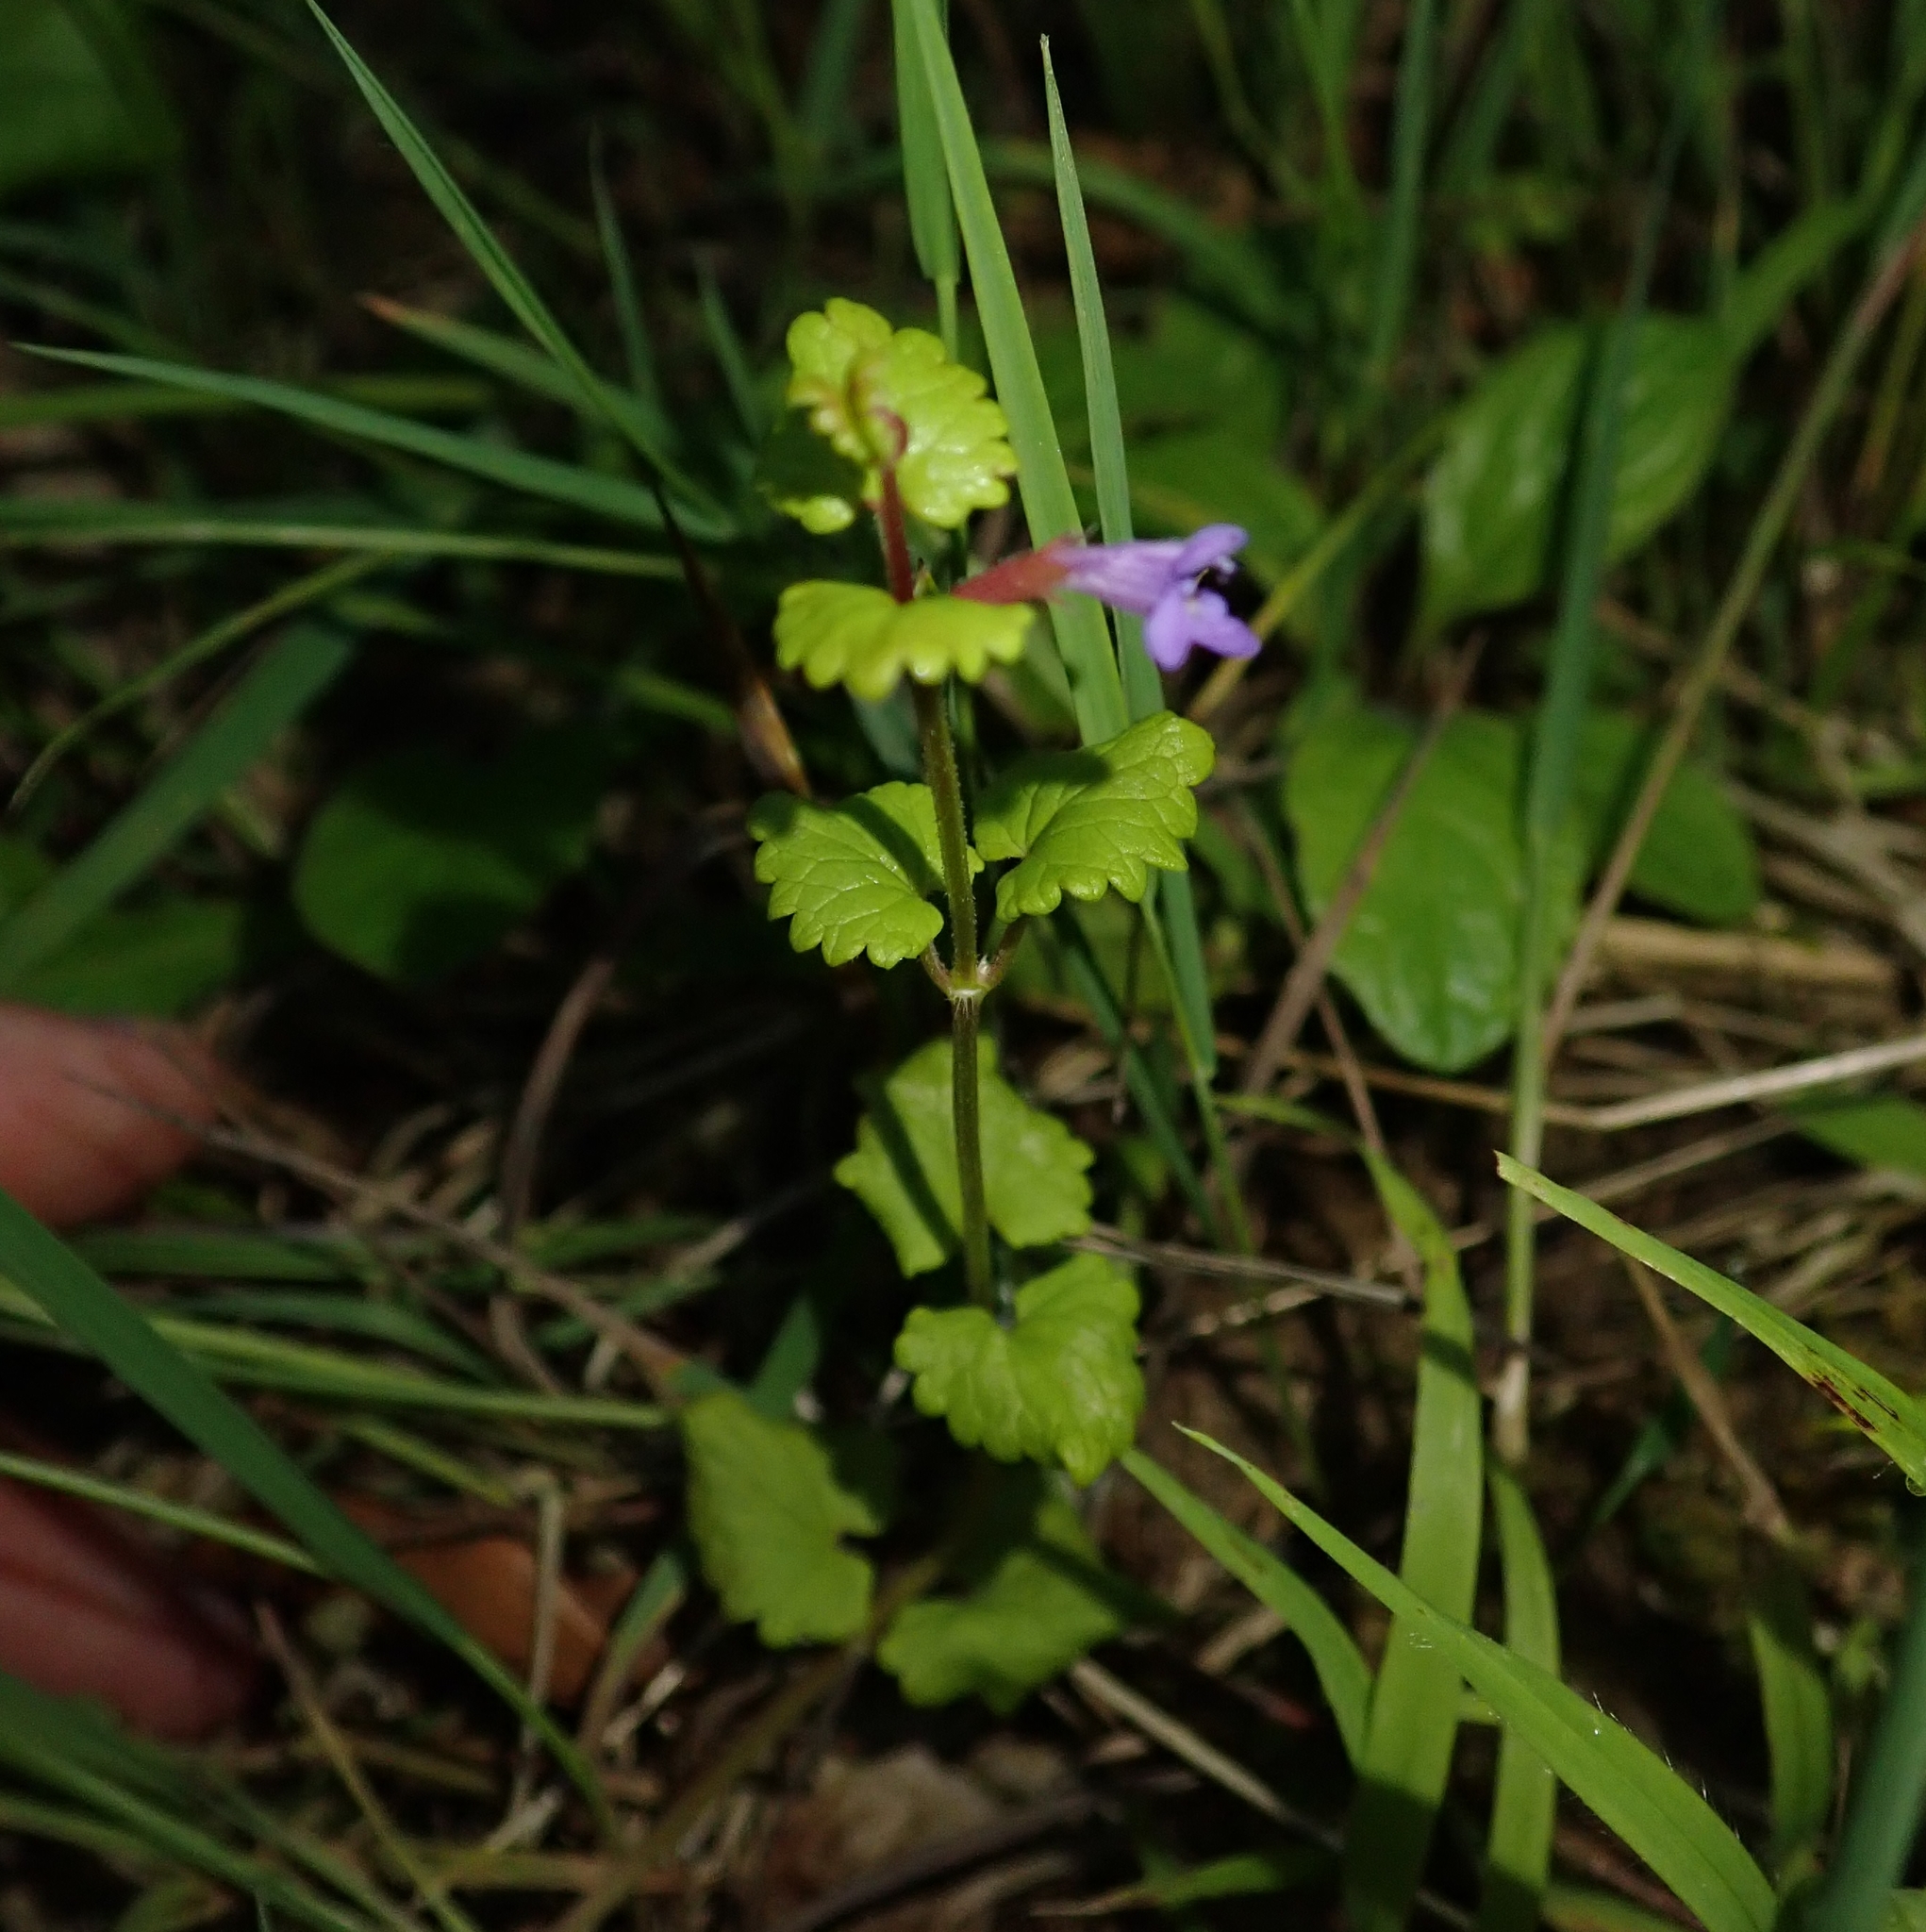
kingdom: Plantae
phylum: Tracheophyta
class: Magnoliopsida
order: Lamiales
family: Lamiaceae
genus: Glechoma
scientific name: Glechoma hederacea
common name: Ground ivy
